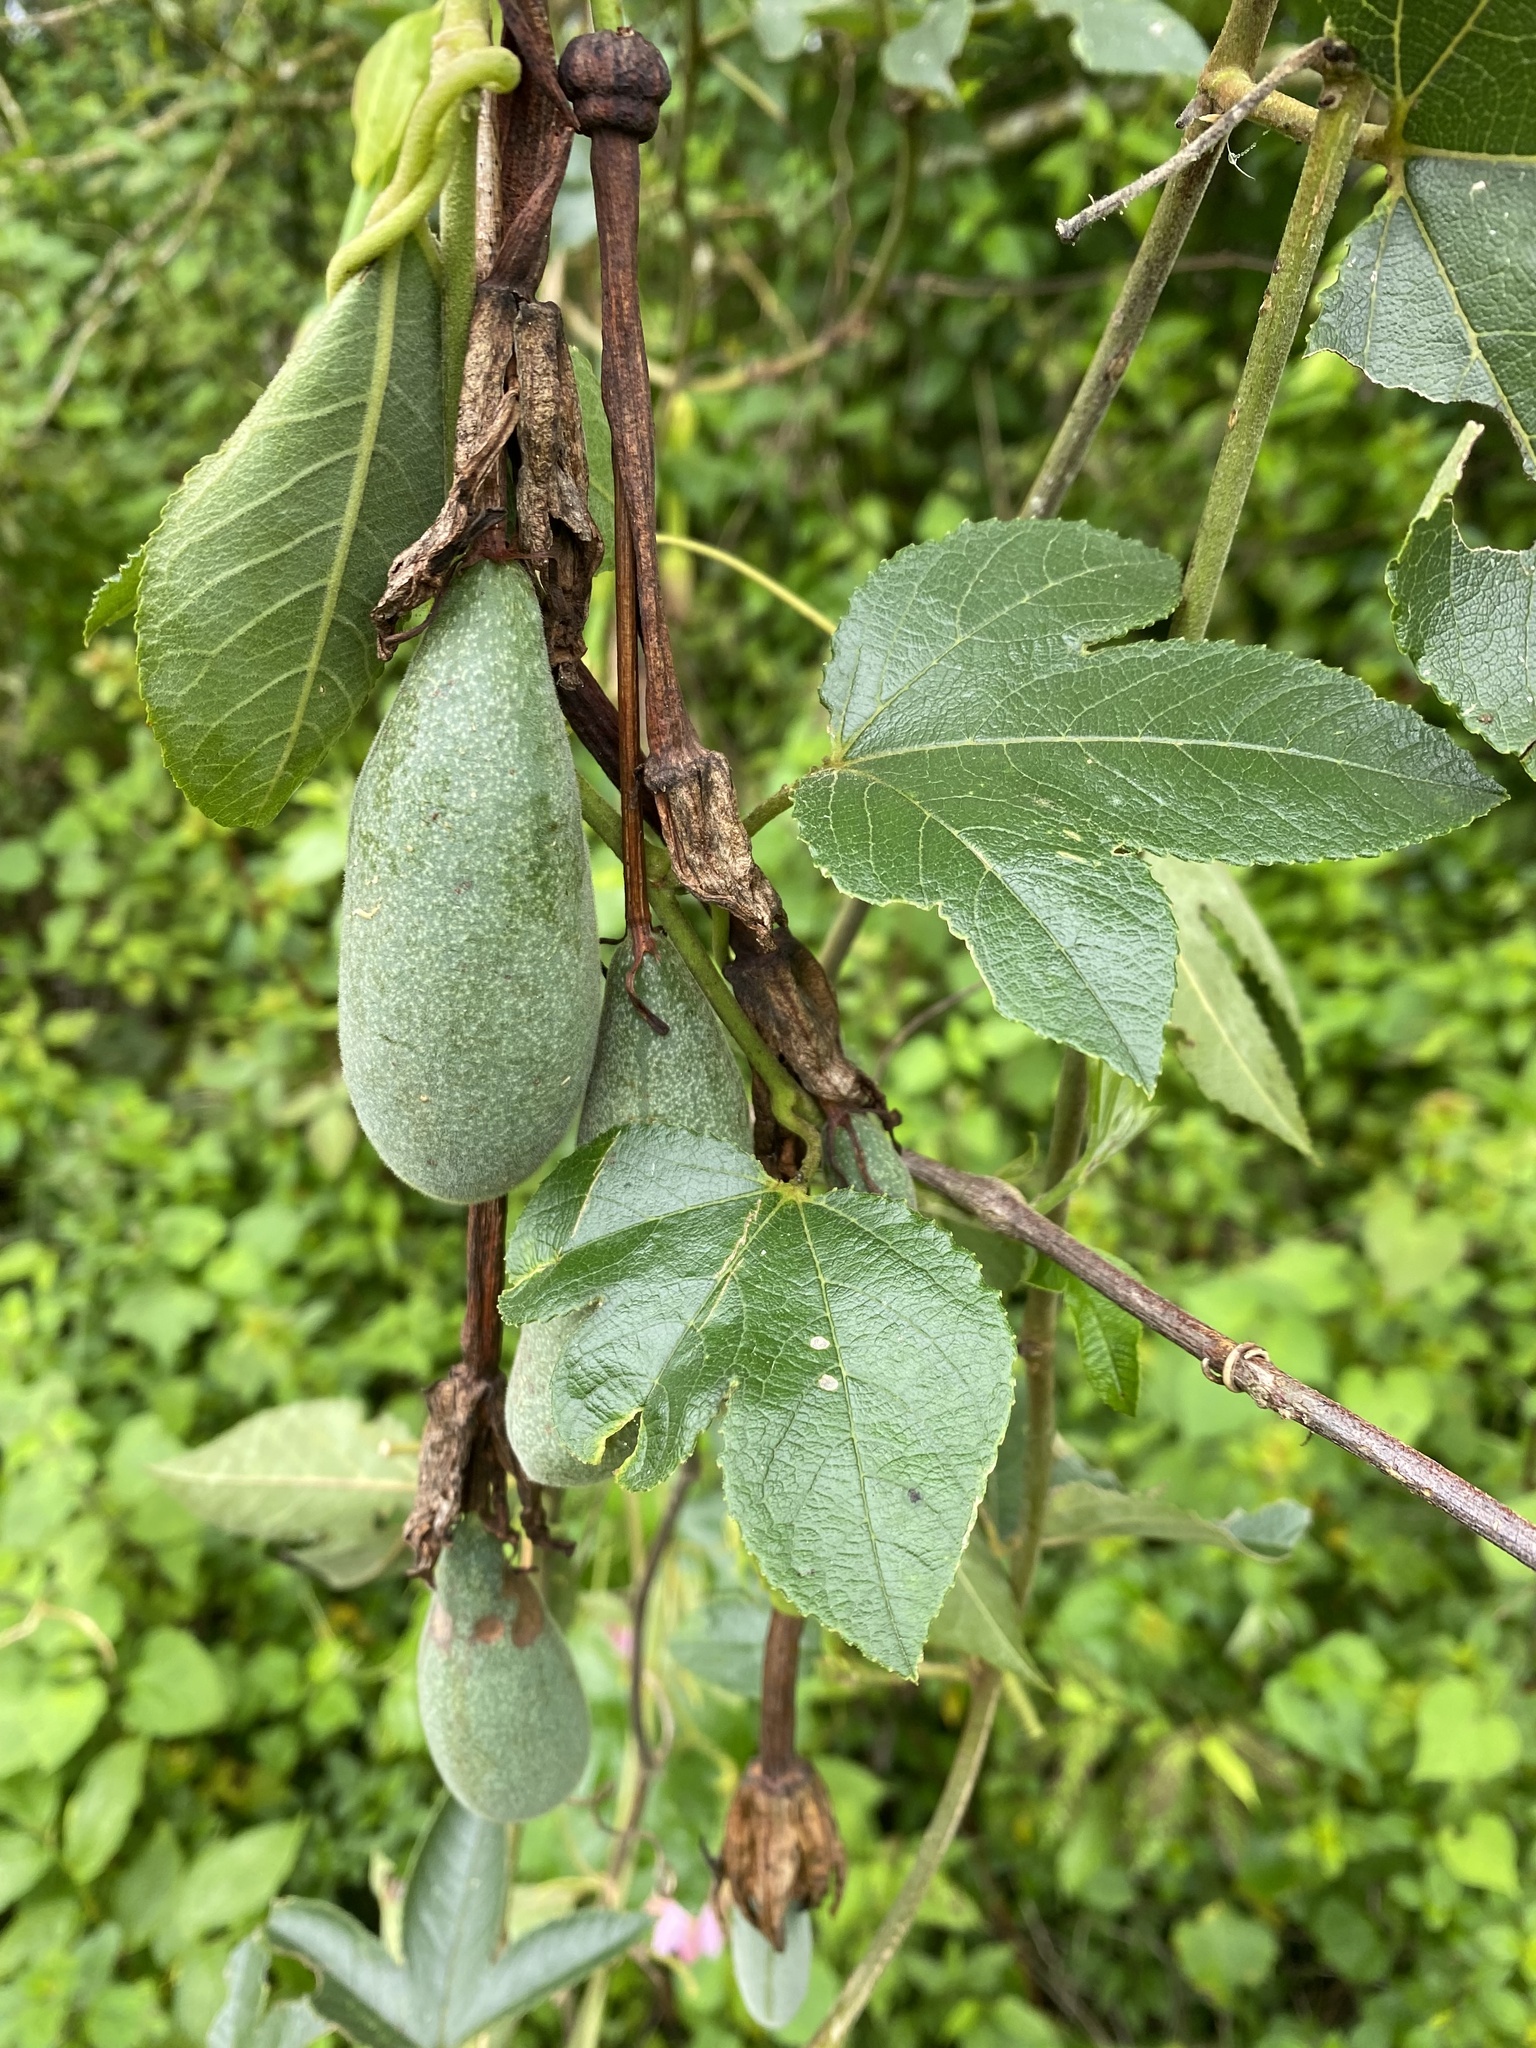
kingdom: Plantae
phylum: Tracheophyta
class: Magnoliopsida
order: Malpighiales
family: Passifloraceae
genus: Passiflora
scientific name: Passiflora tarminiana
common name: Banana poka
